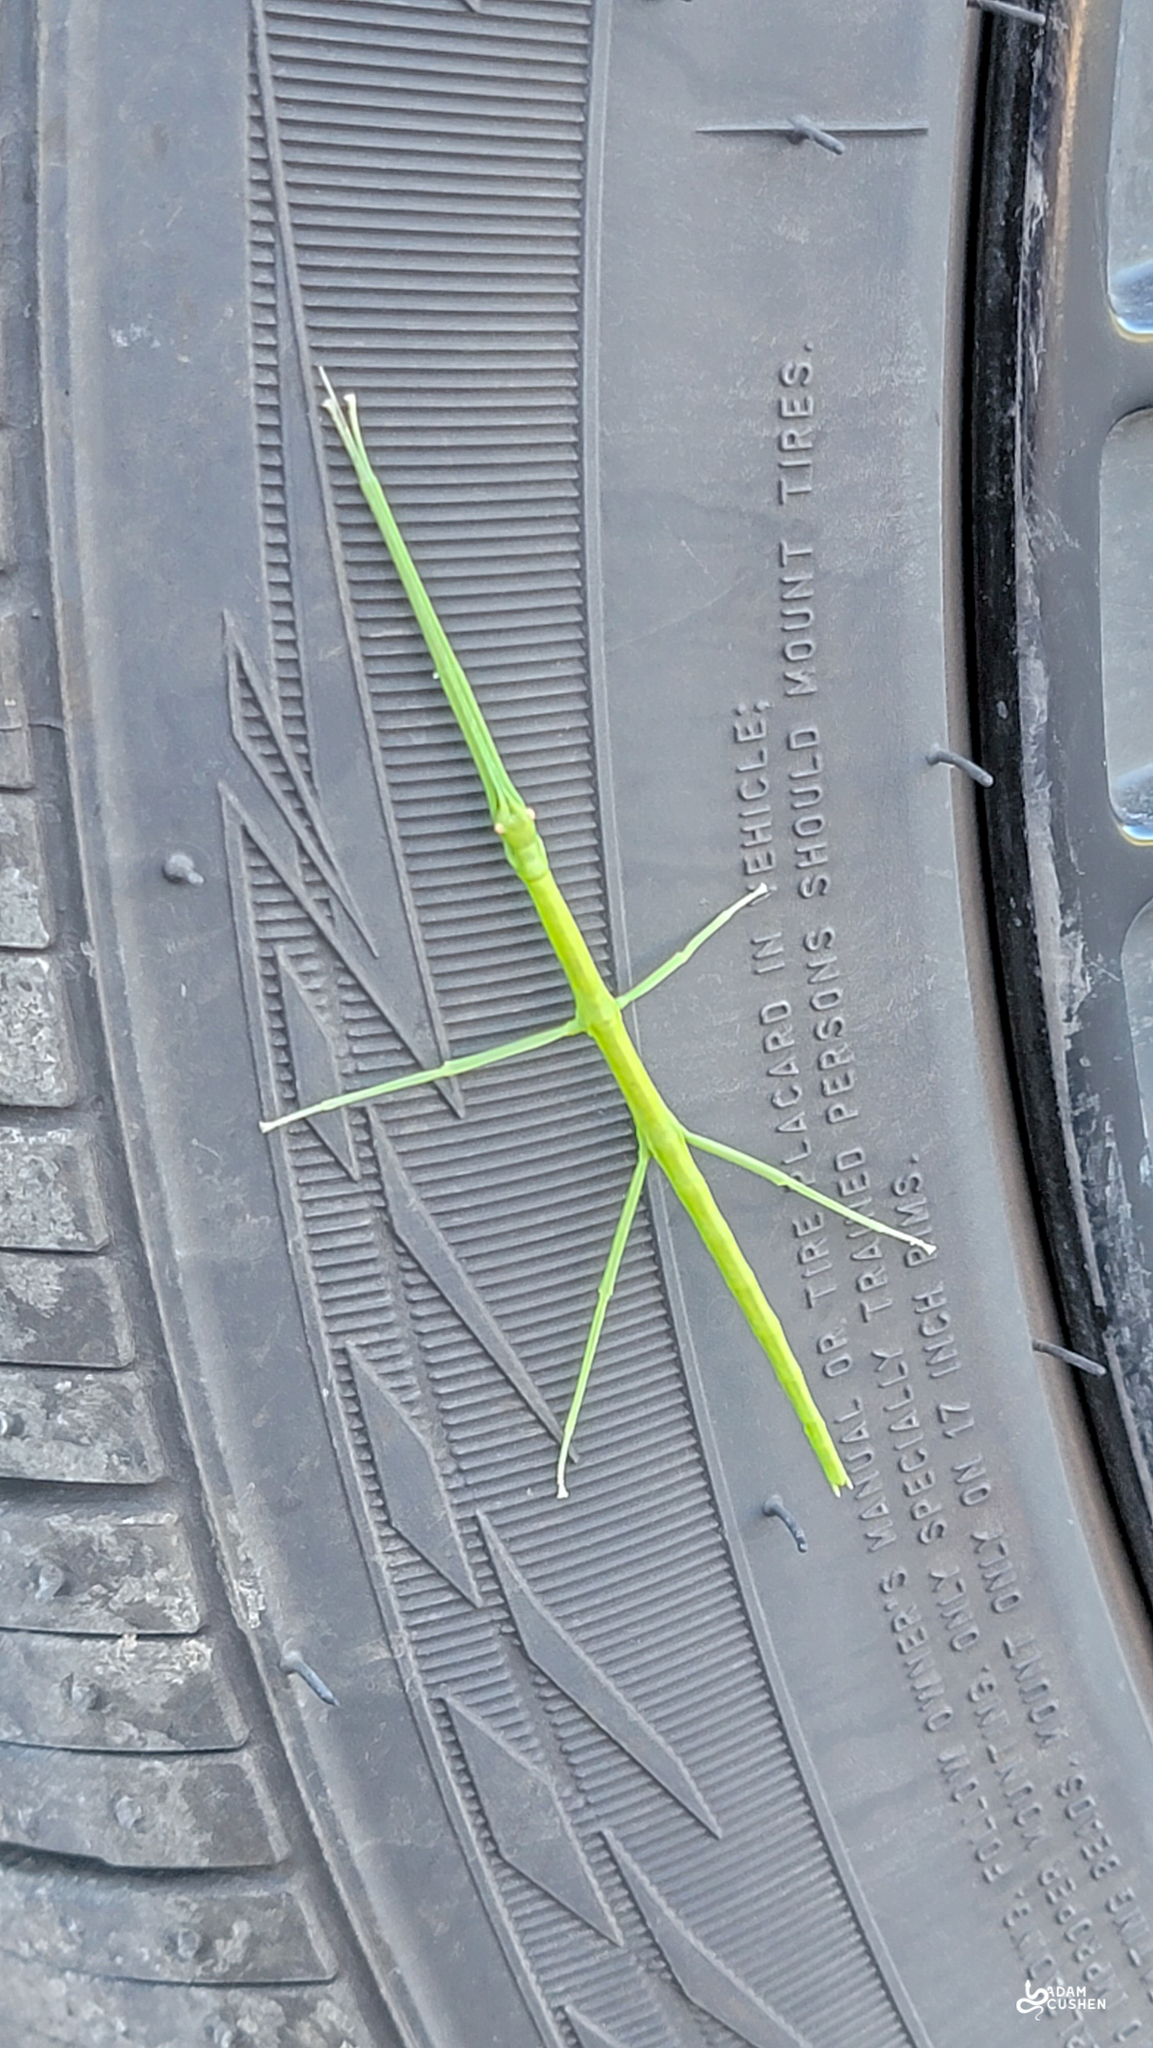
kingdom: Animalia
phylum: Arthropoda
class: Insecta
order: Phasmida
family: Diapheromeridae
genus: Diapheromera
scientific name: Diapheromera femorata
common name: Common american walkingstick
